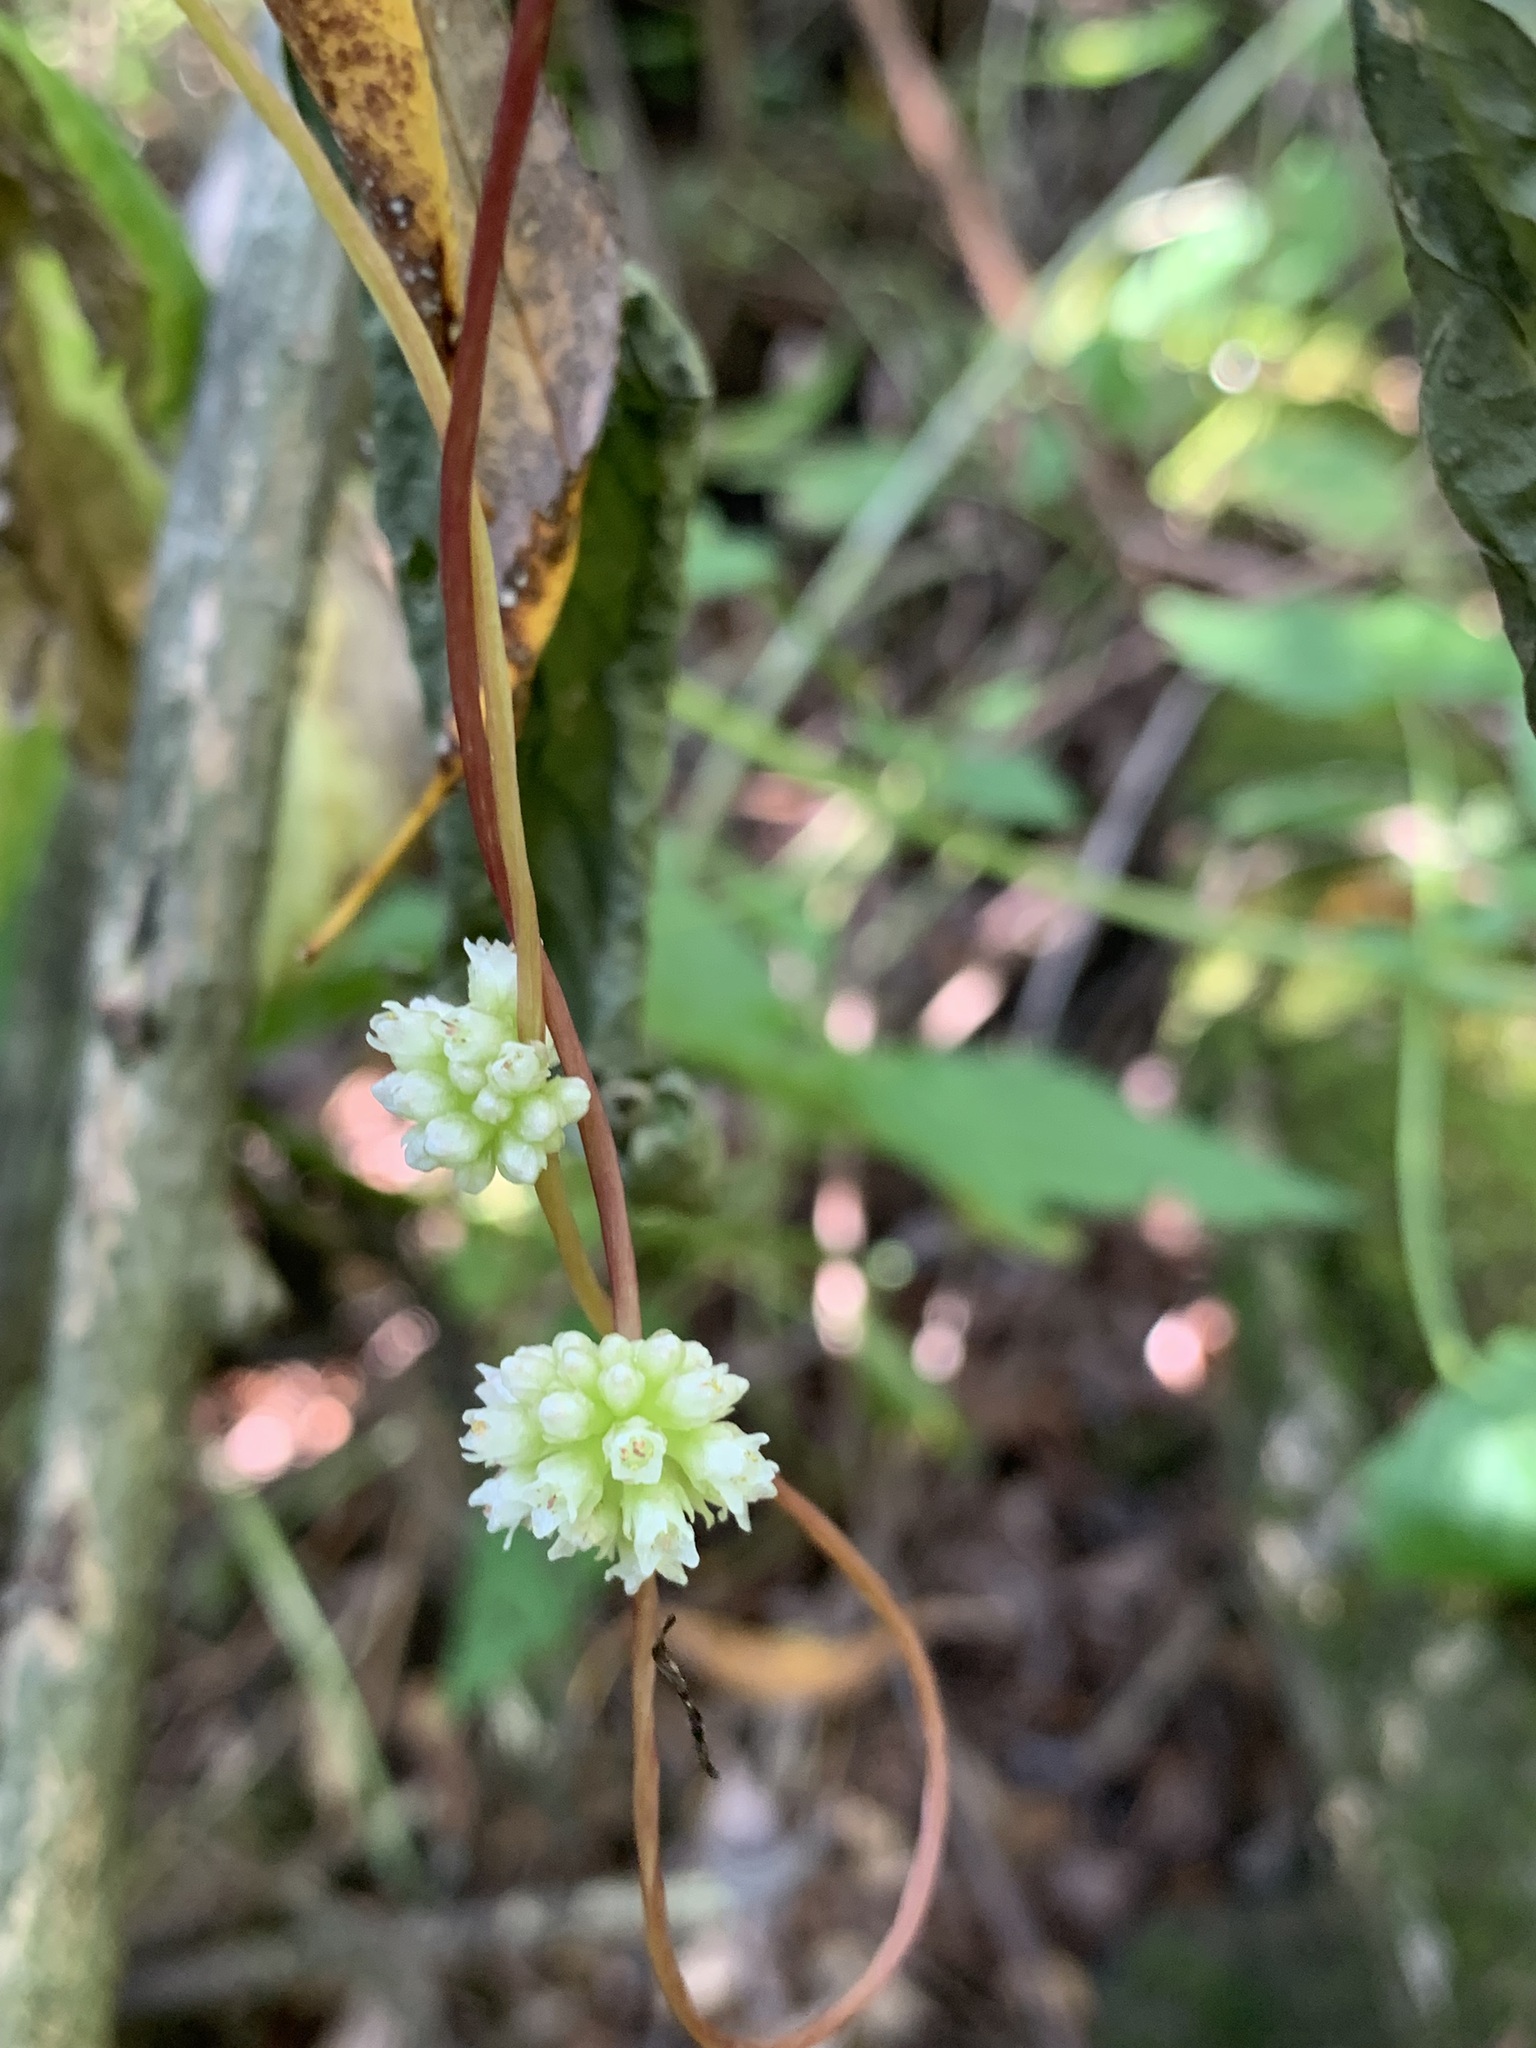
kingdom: Plantae
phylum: Tracheophyta
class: Magnoliopsida
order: Solanales
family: Convolvulaceae
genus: Cuscuta
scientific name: Cuscuta europaea
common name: Greater dodder
